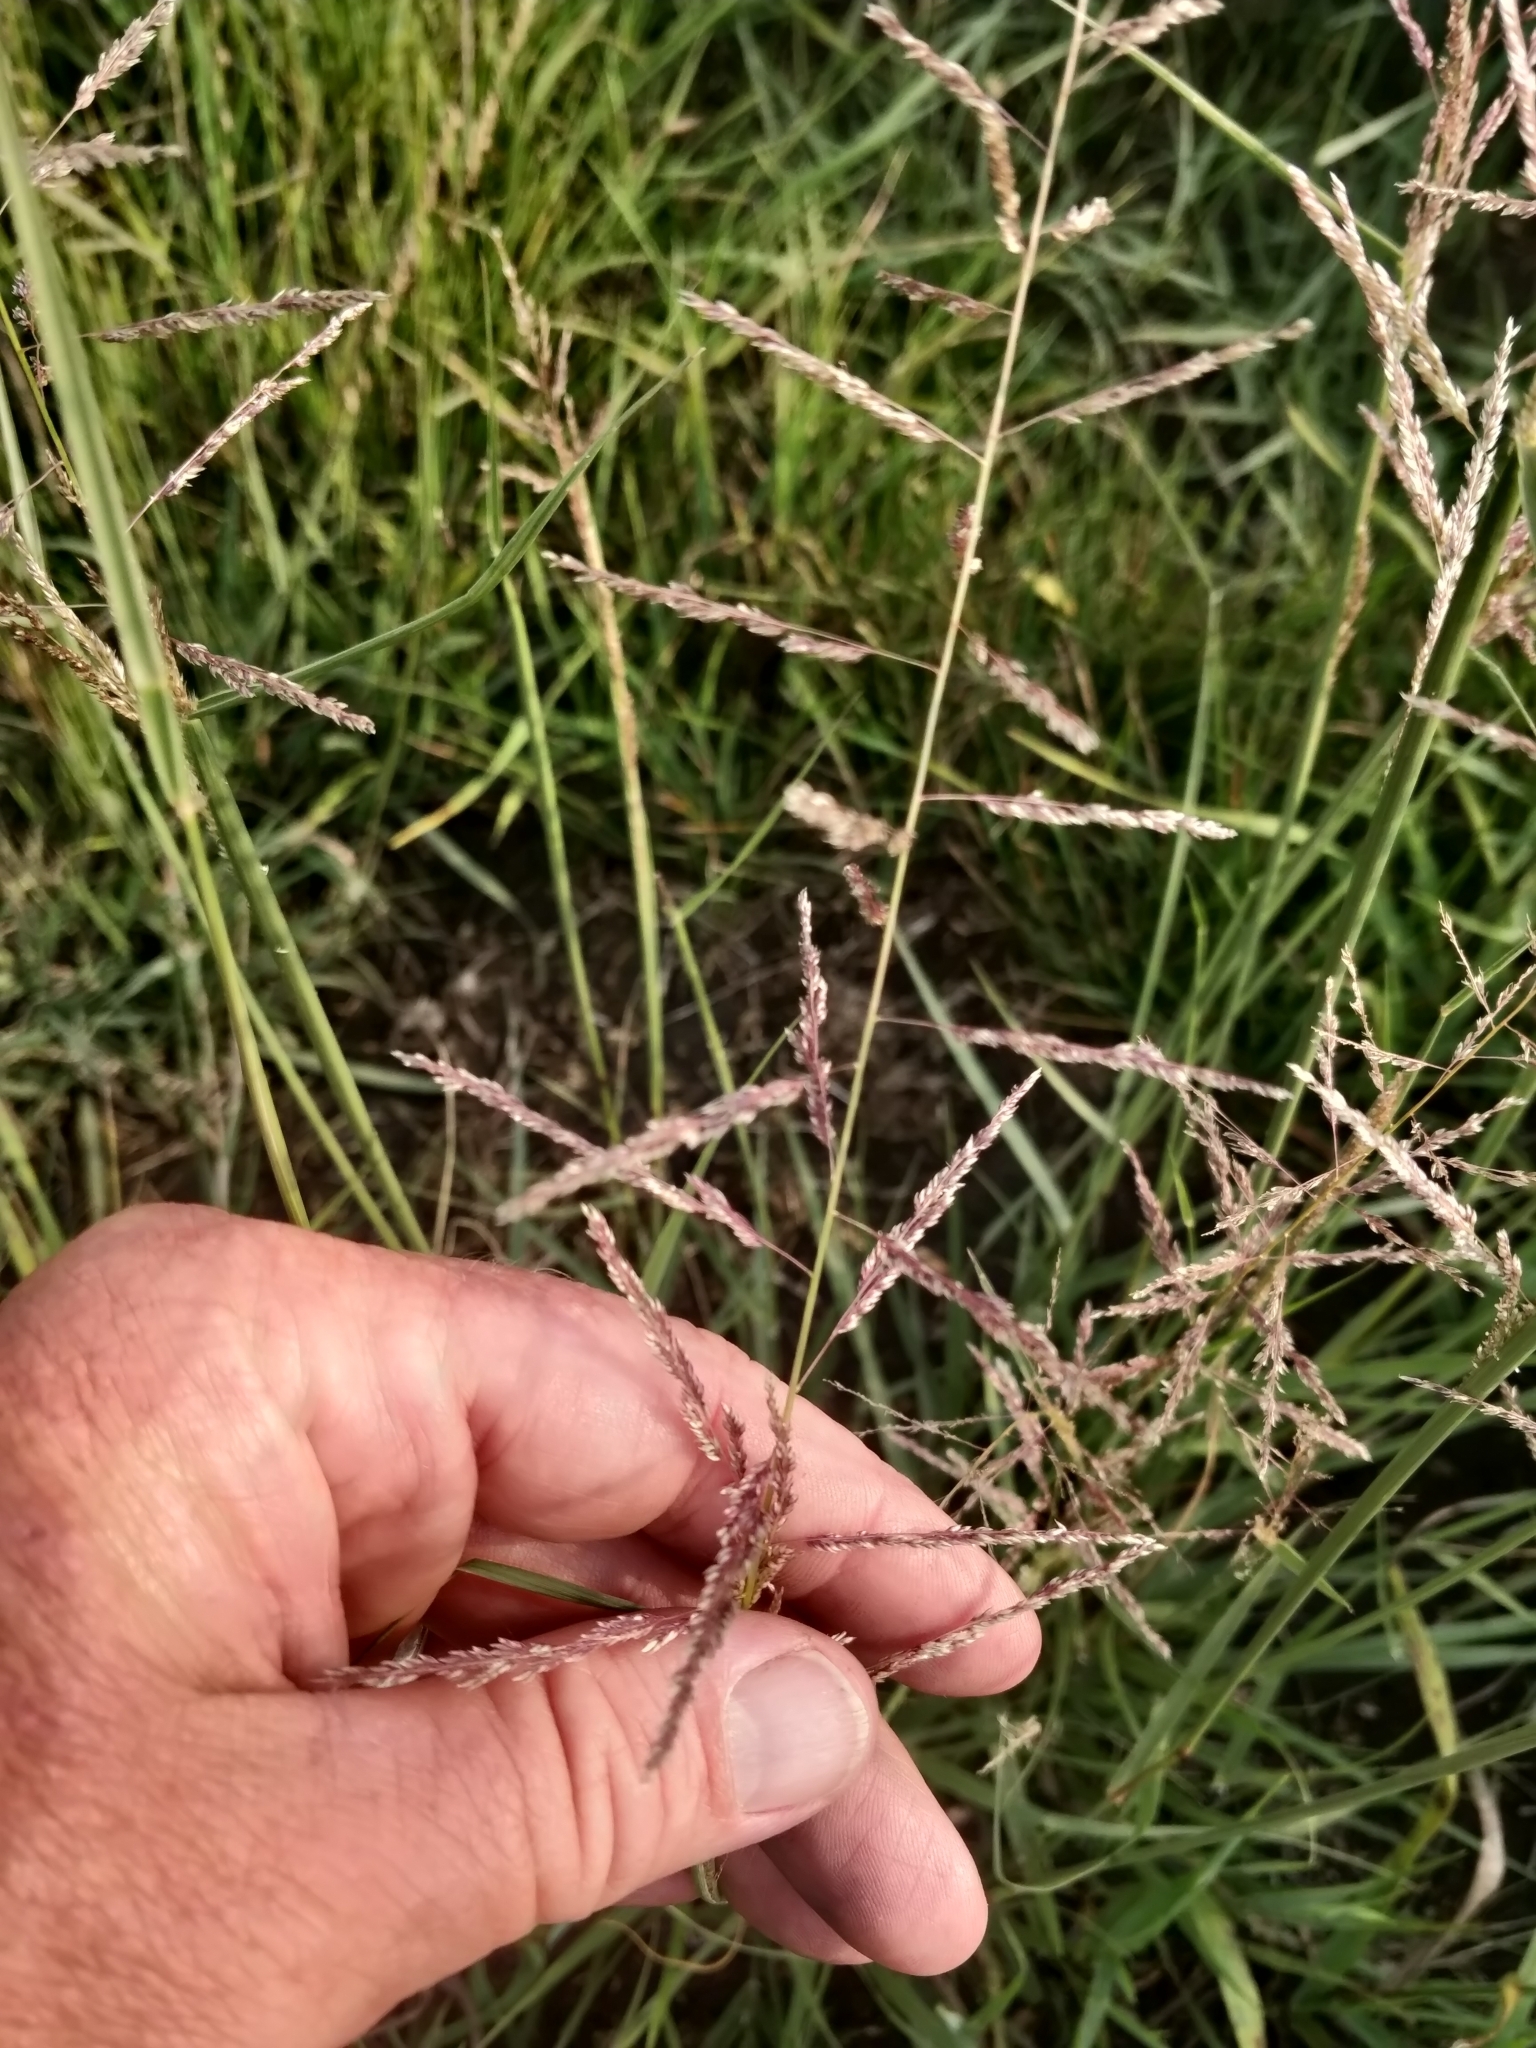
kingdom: Plantae
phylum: Tracheophyta
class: Liliopsida
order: Poales
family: Poaceae
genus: Sporobolus
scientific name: Sporobolus cryptandrus
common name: Sand dropseed
